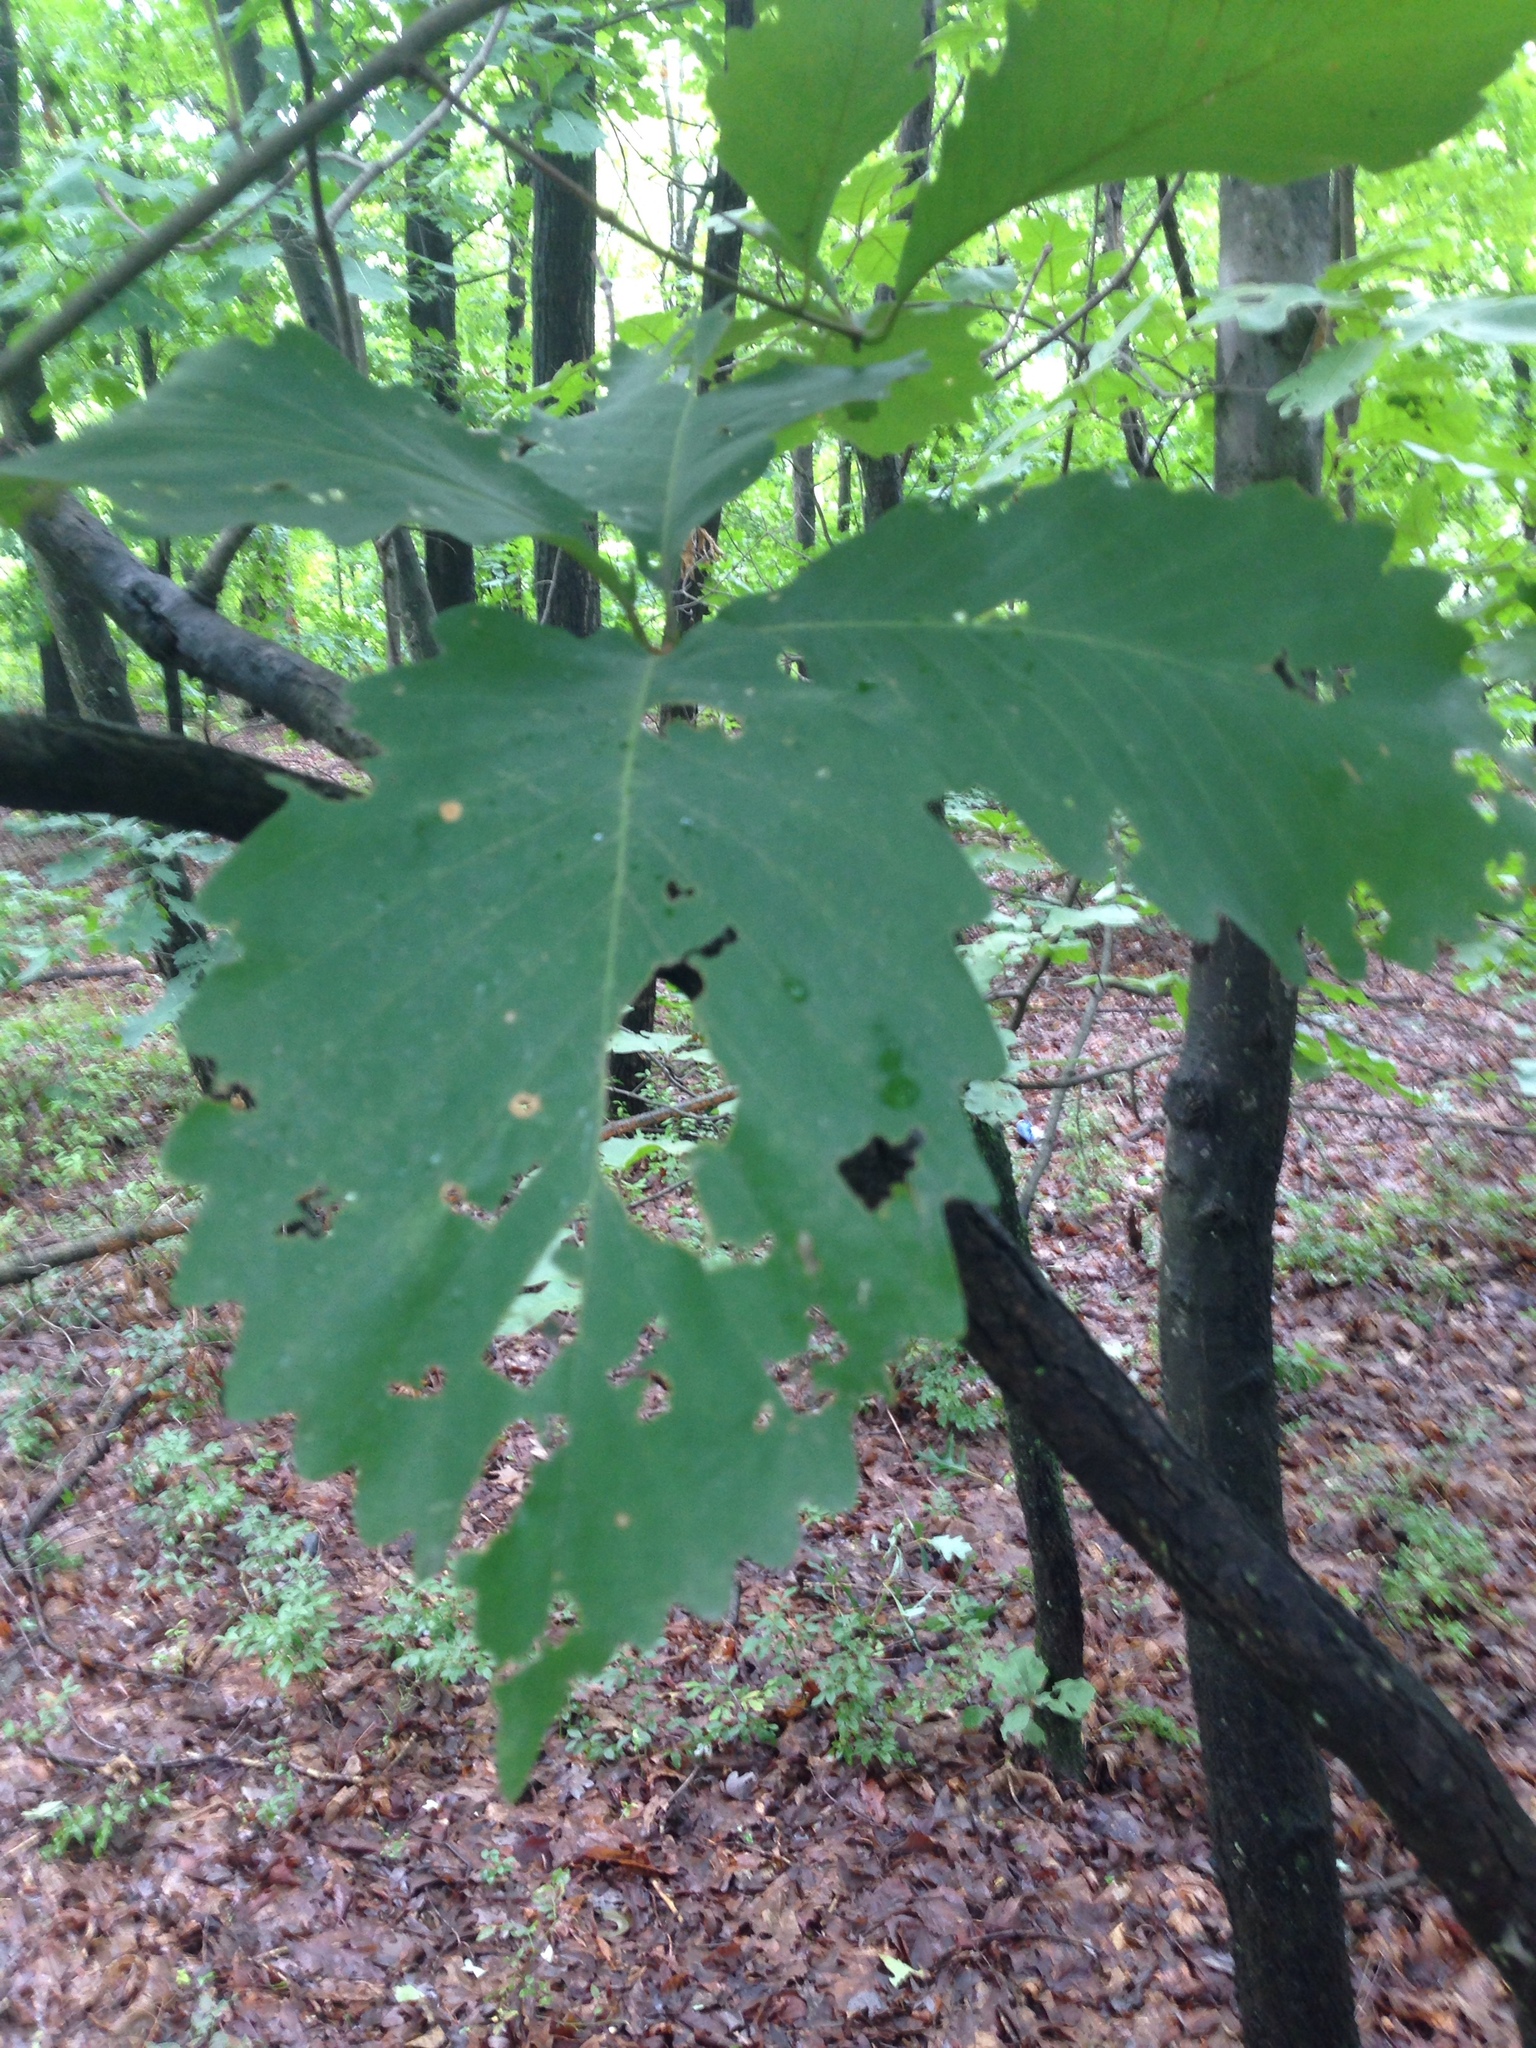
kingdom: Plantae
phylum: Tracheophyta
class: Magnoliopsida
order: Fagales
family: Fagaceae
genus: Quercus
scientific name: Quercus montana
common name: Chestnut oak
